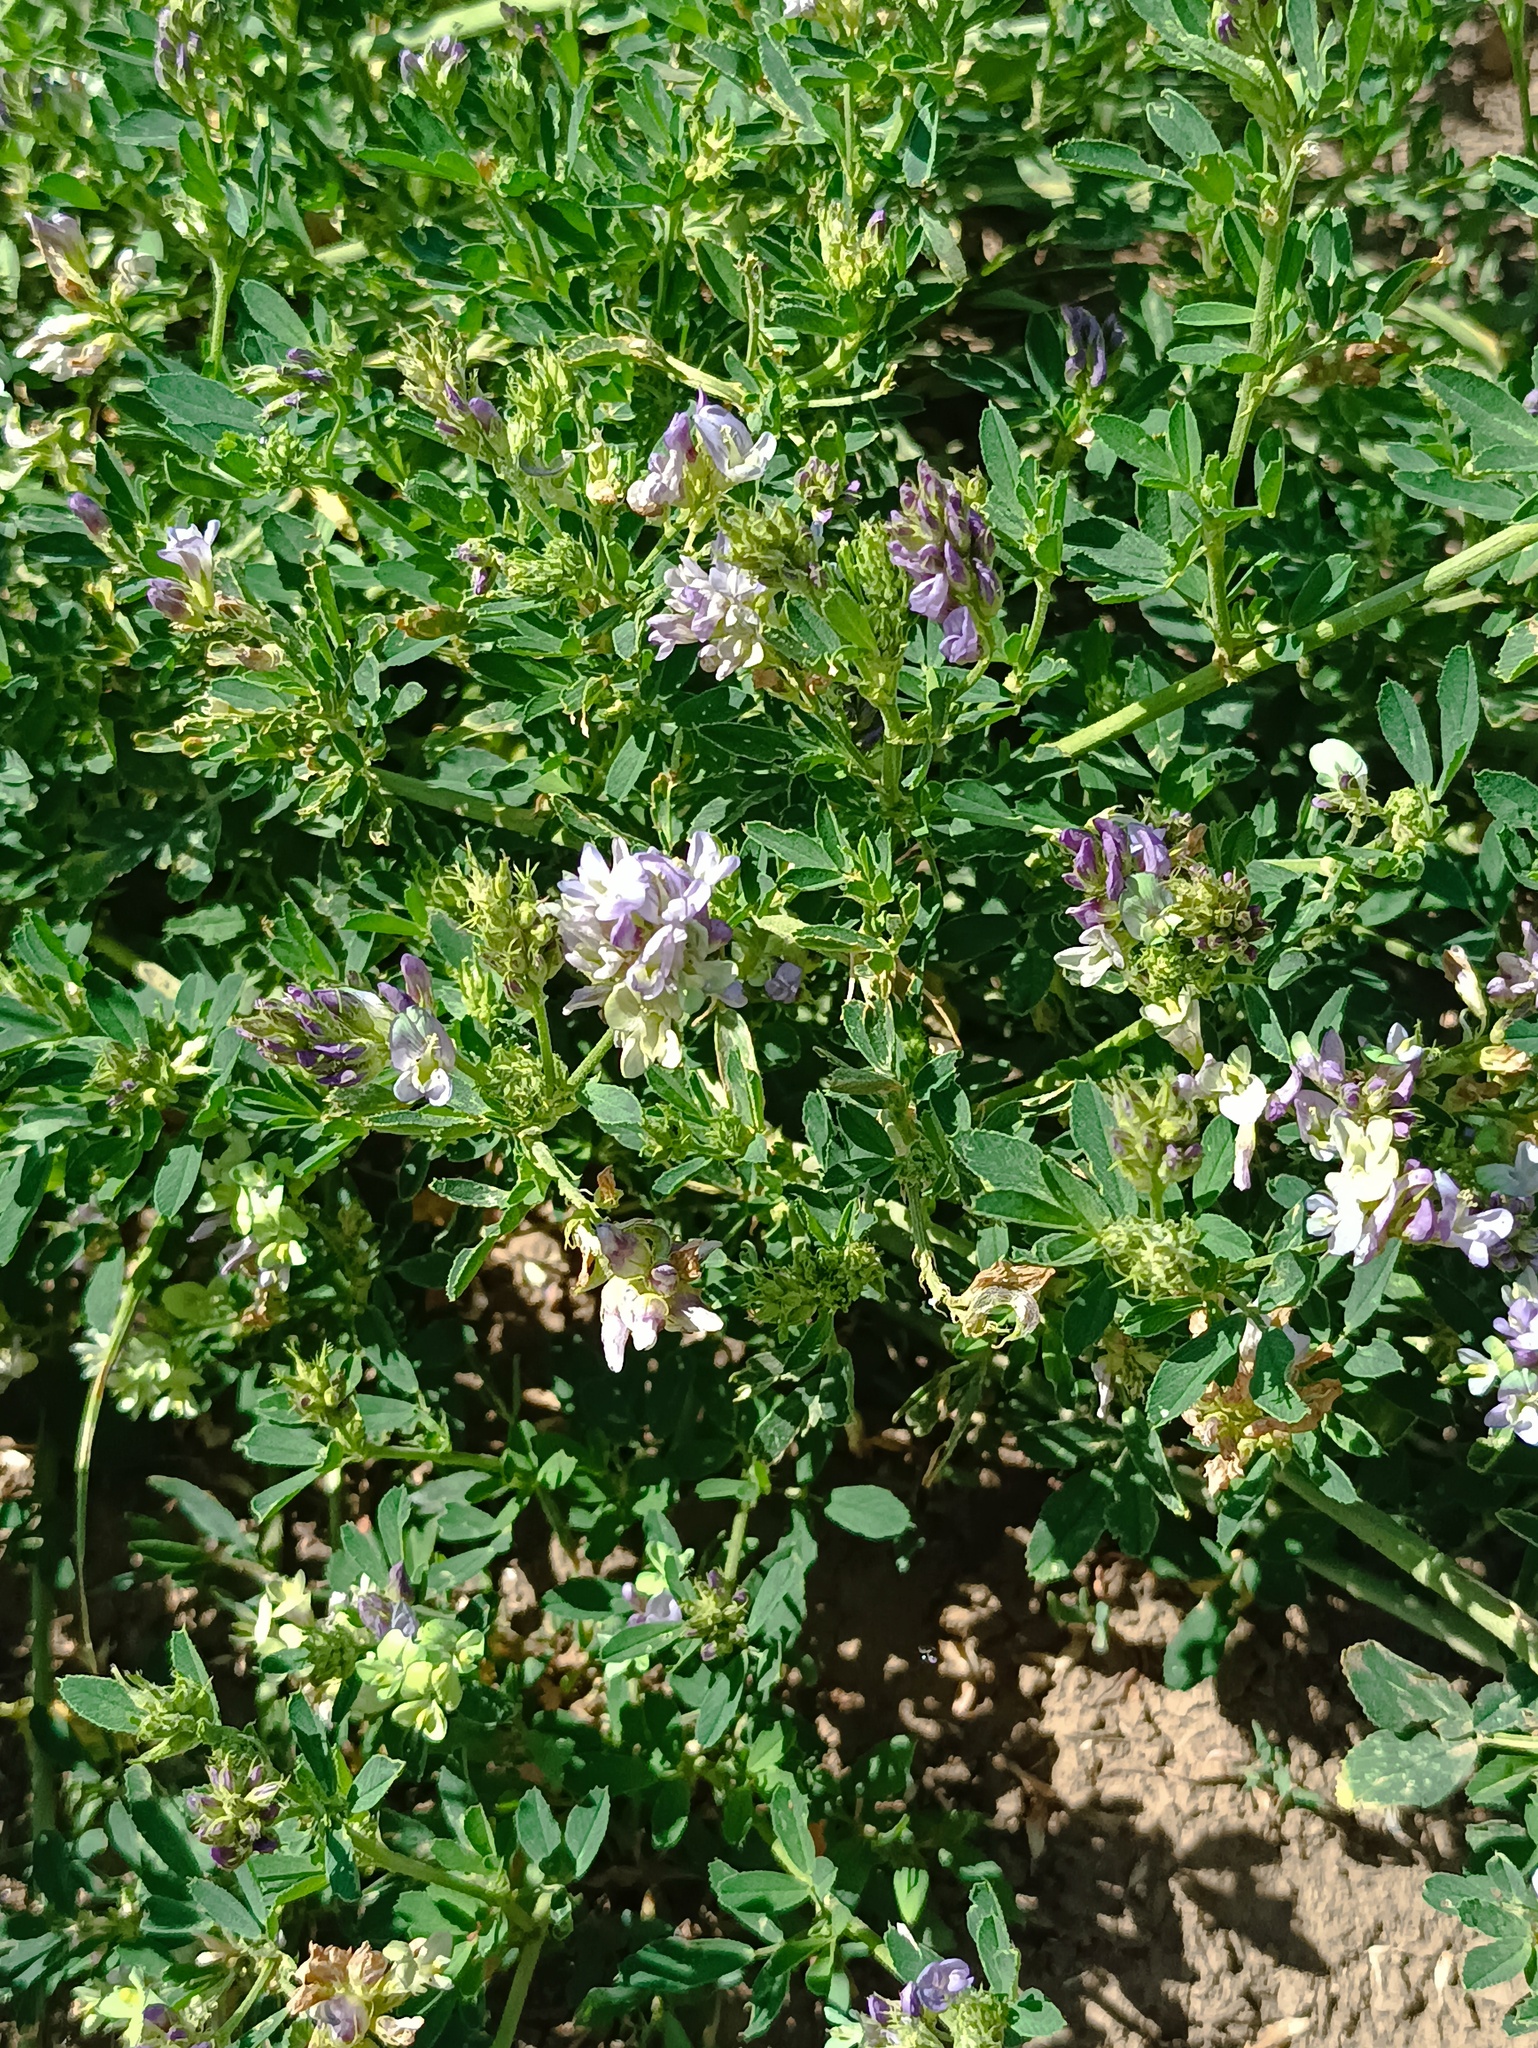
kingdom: Plantae
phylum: Tracheophyta
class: Magnoliopsida
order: Fabales
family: Fabaceae
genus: Medicago
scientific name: Medicago varia
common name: Sand lucerne
